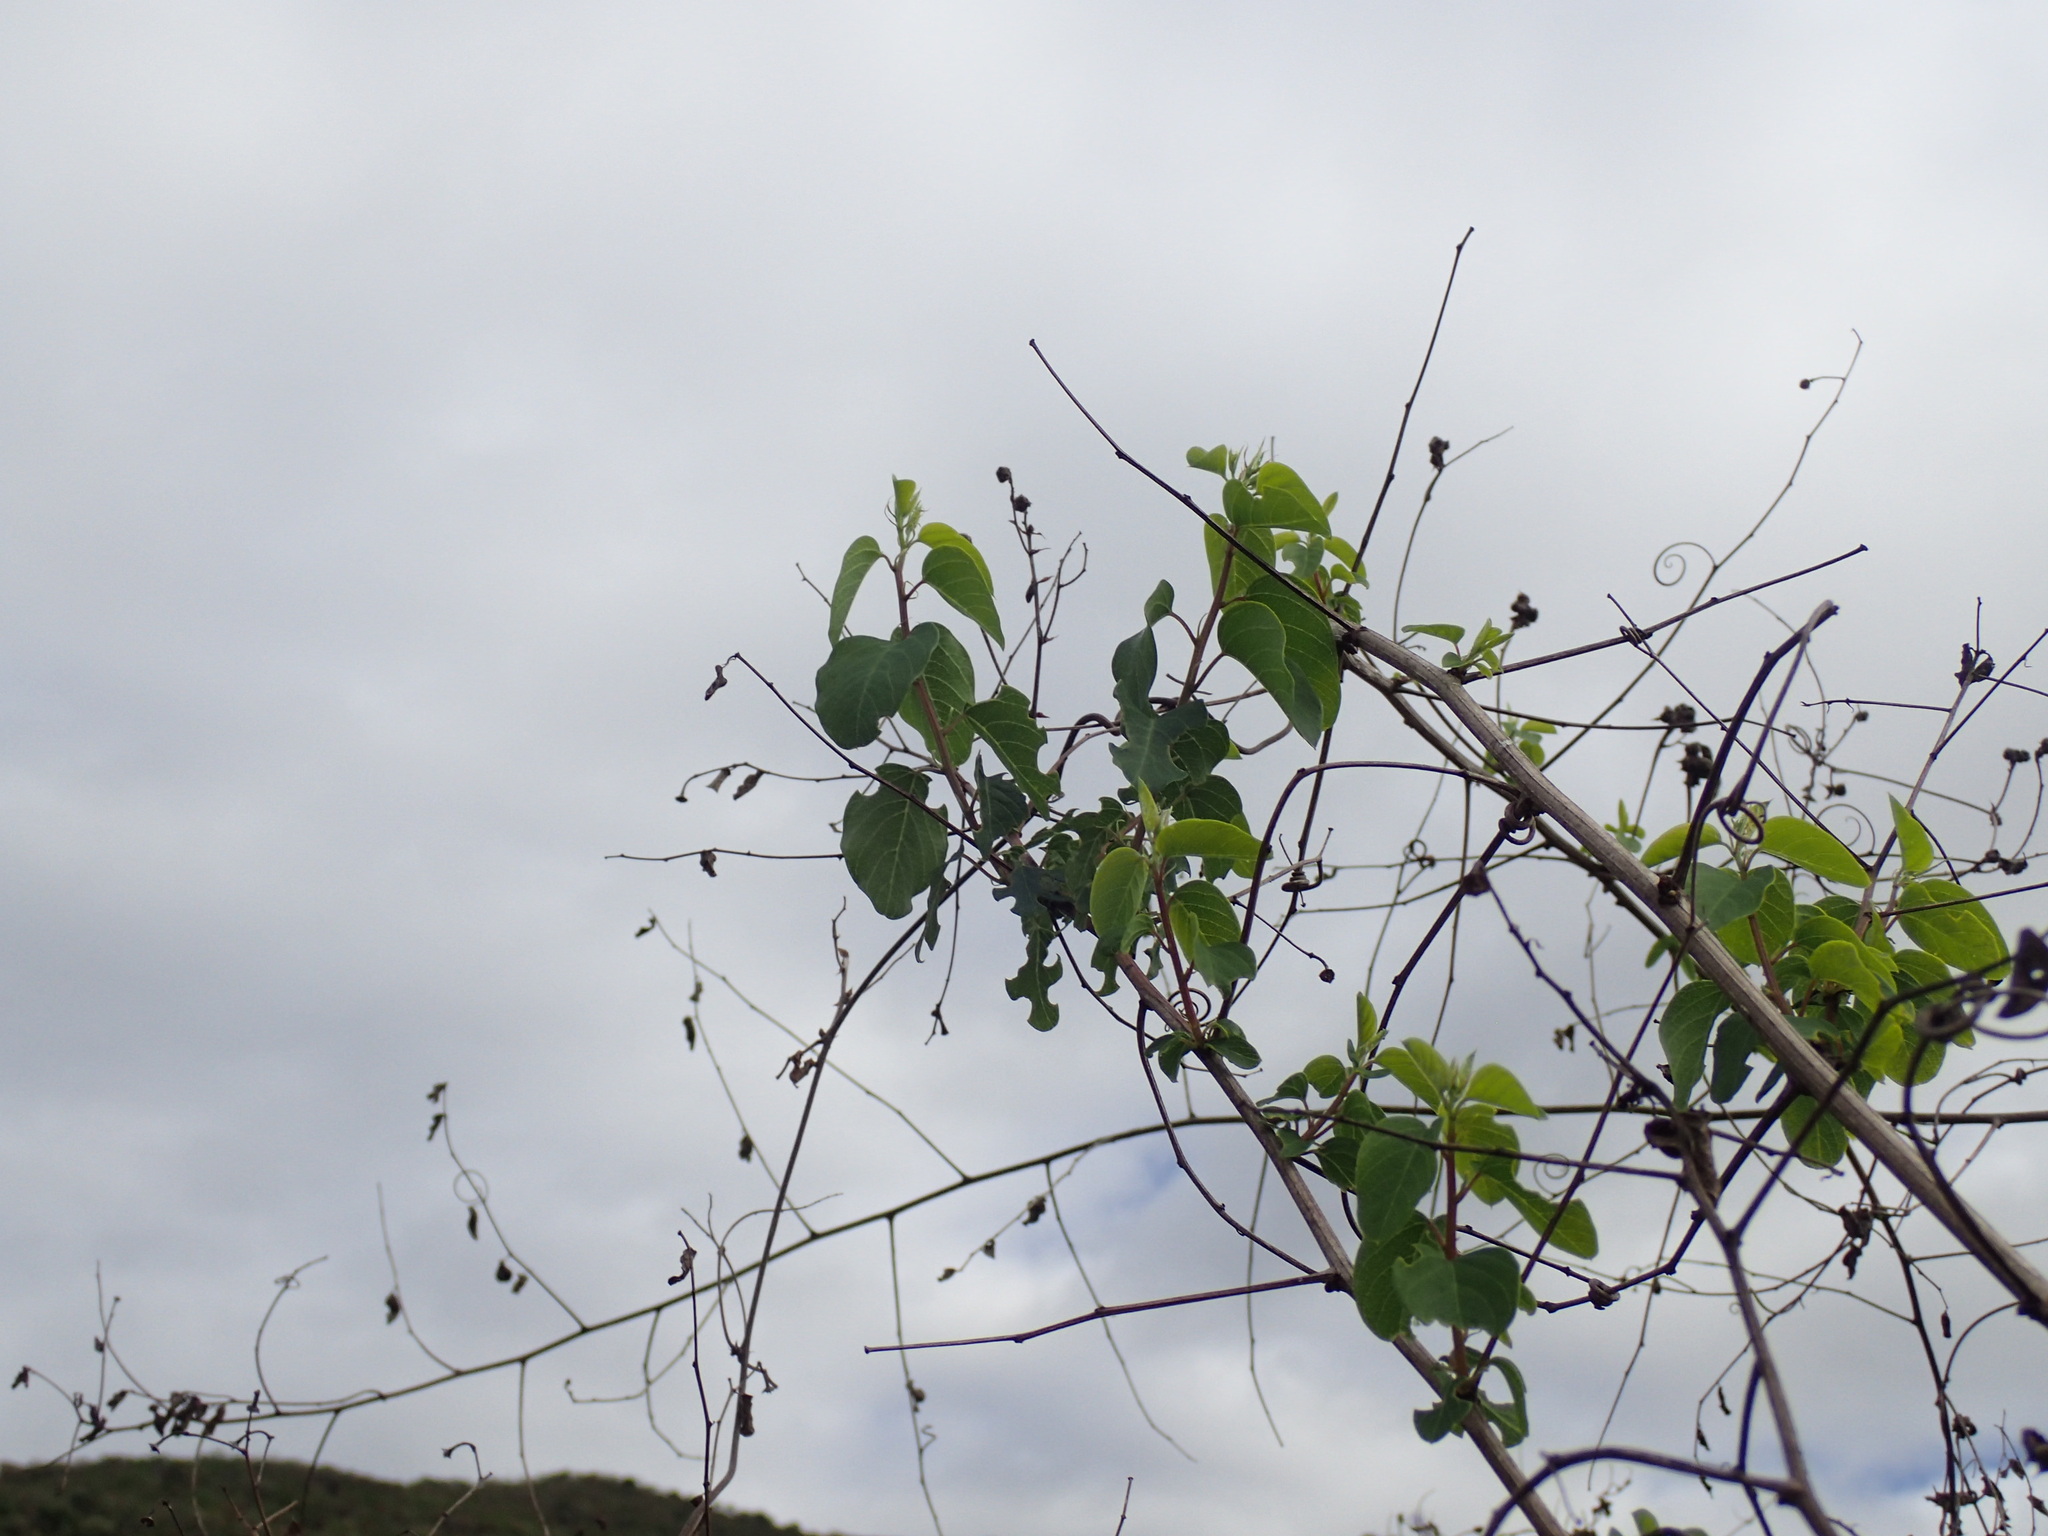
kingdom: Plantae
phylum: Tracheophyta
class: Magnoliopsida
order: Rosales
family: Rhamnaceae
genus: Helinus
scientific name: Helinus integrifolius
